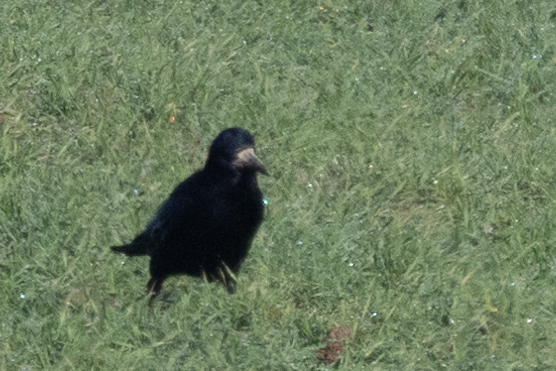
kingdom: Animalia
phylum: Chordata
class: Aves
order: Passeriformes
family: Corvidae
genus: Corvus
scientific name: Corvus frugilegus
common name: Rook
